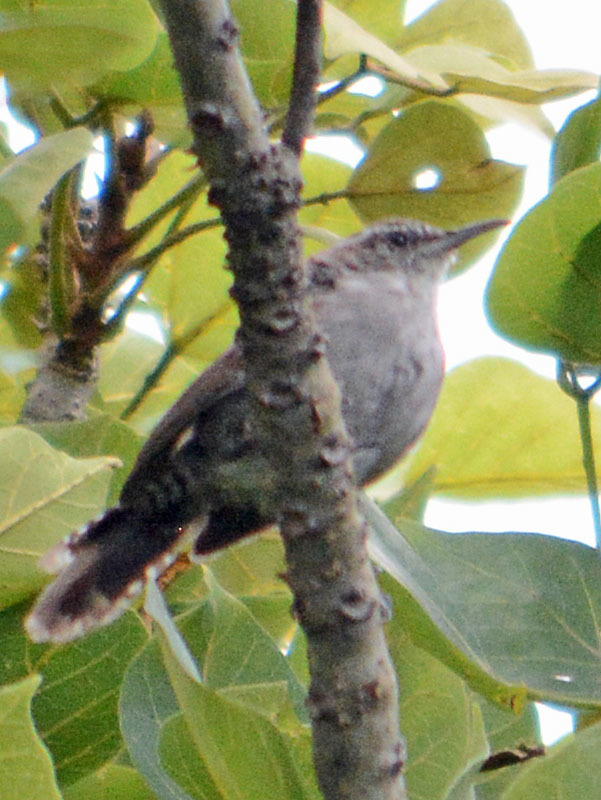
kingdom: Animalia
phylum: Chordata
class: Aves
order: Passeriformes
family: Troglodytidae
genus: Thryomanes
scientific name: Thryomanes bewickii
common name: Bewick's wren
